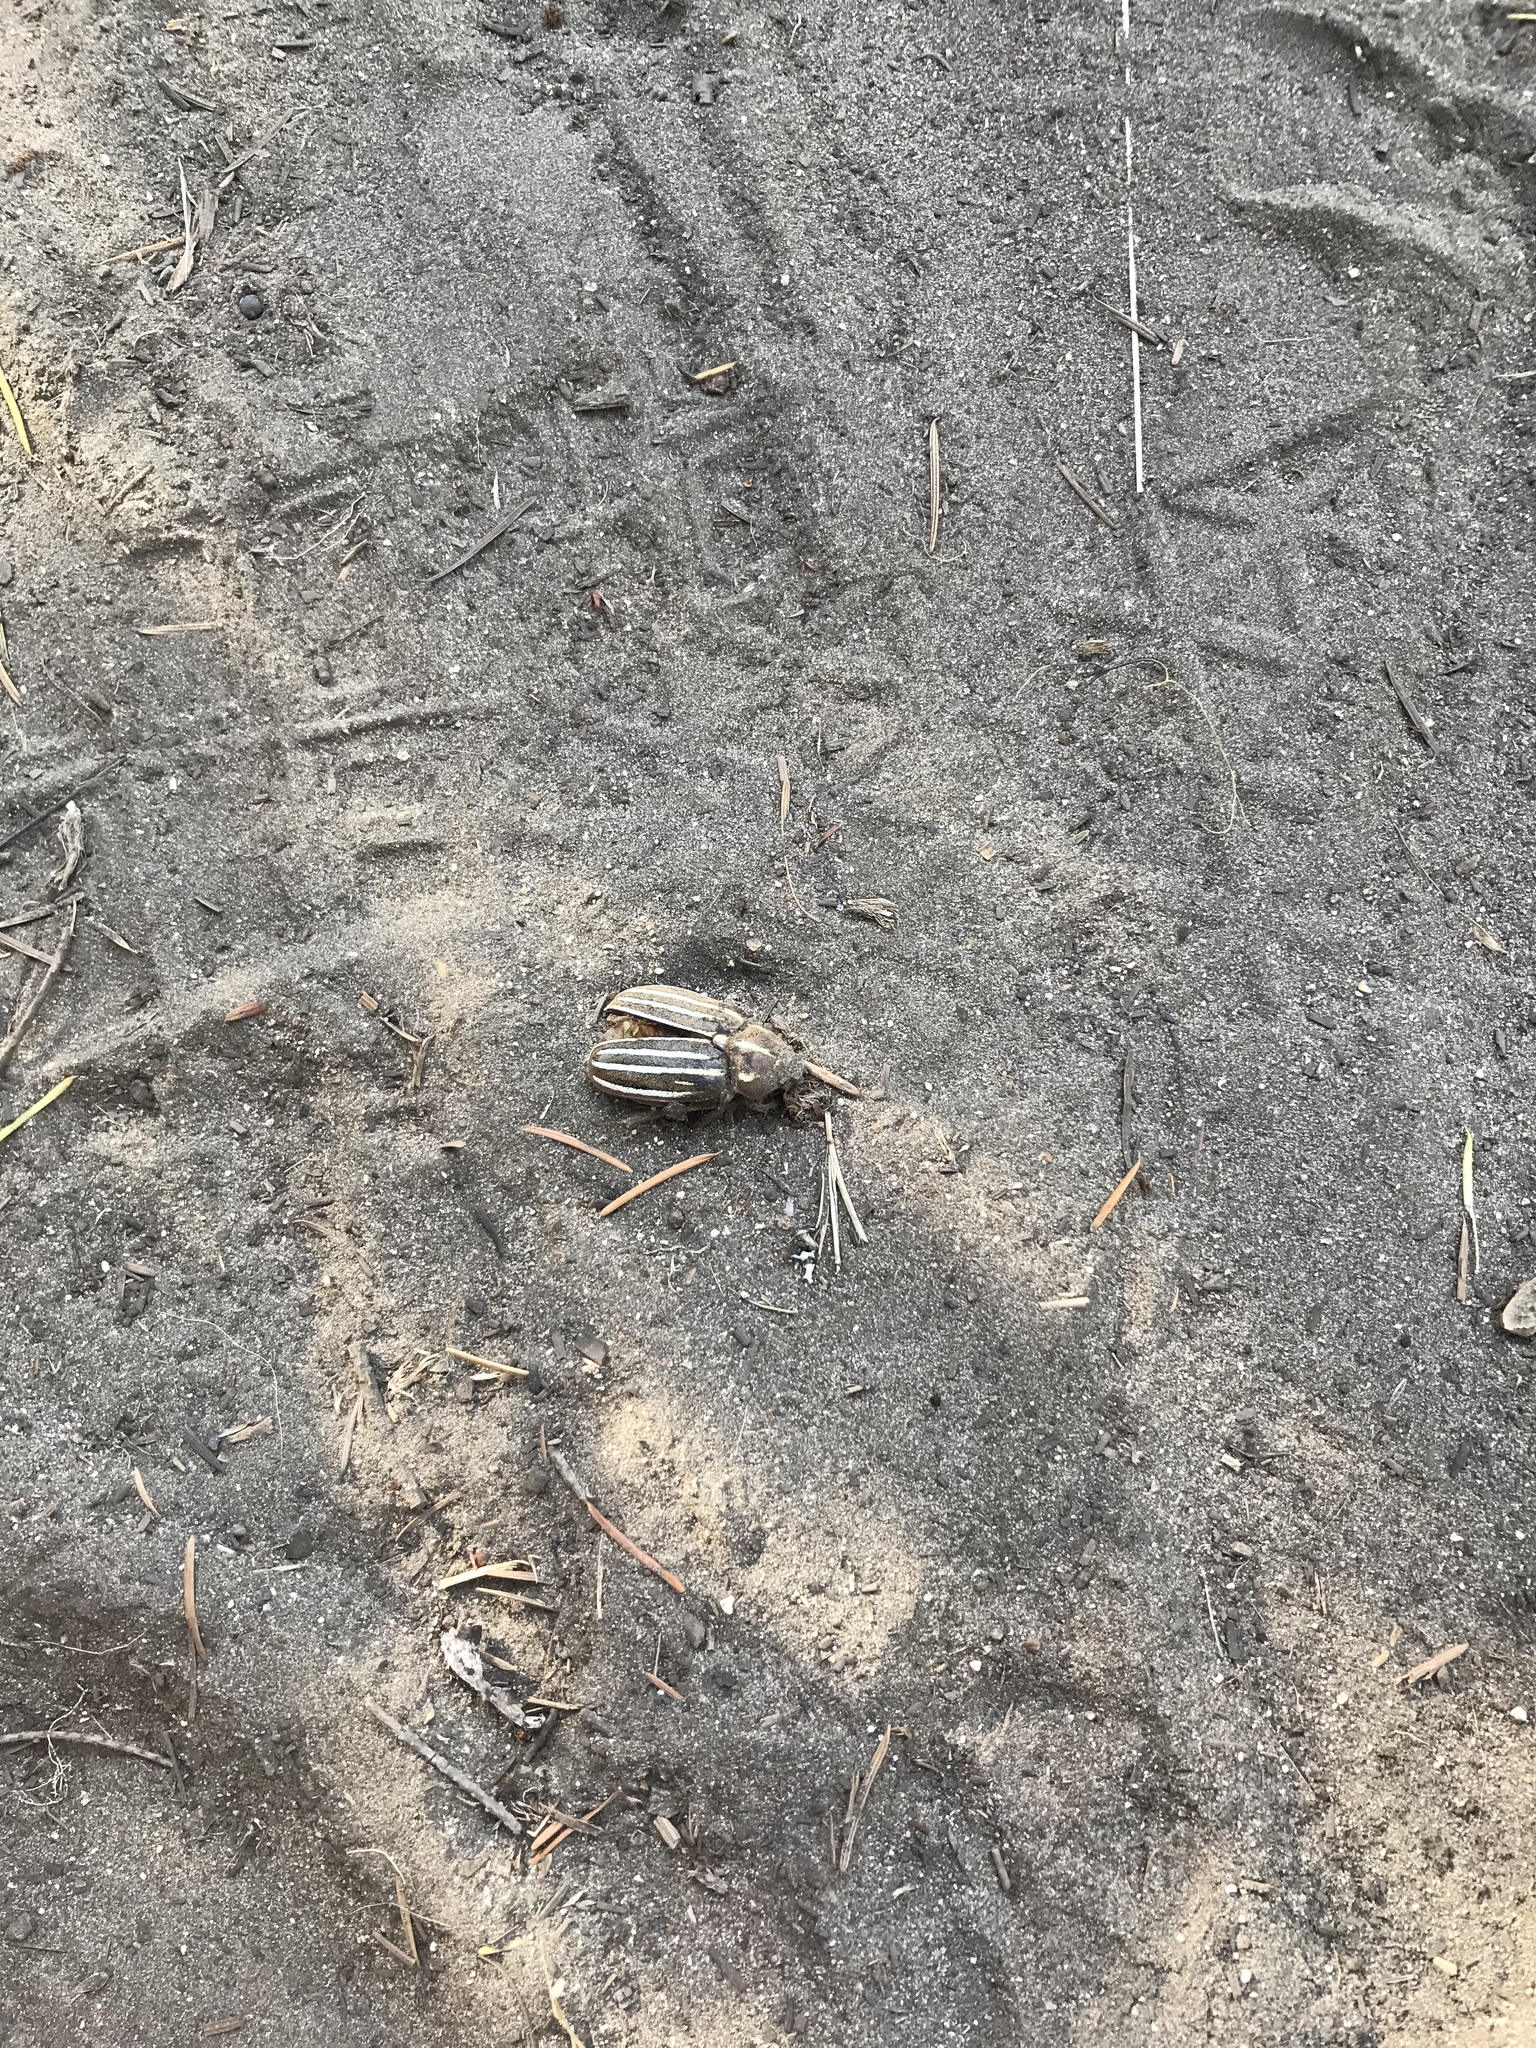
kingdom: Animalia
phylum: Arthropoda
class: Insecta
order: Coleoptera
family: Scarabaeidae
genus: Polyphylla
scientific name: Polyphylla decemlineata
